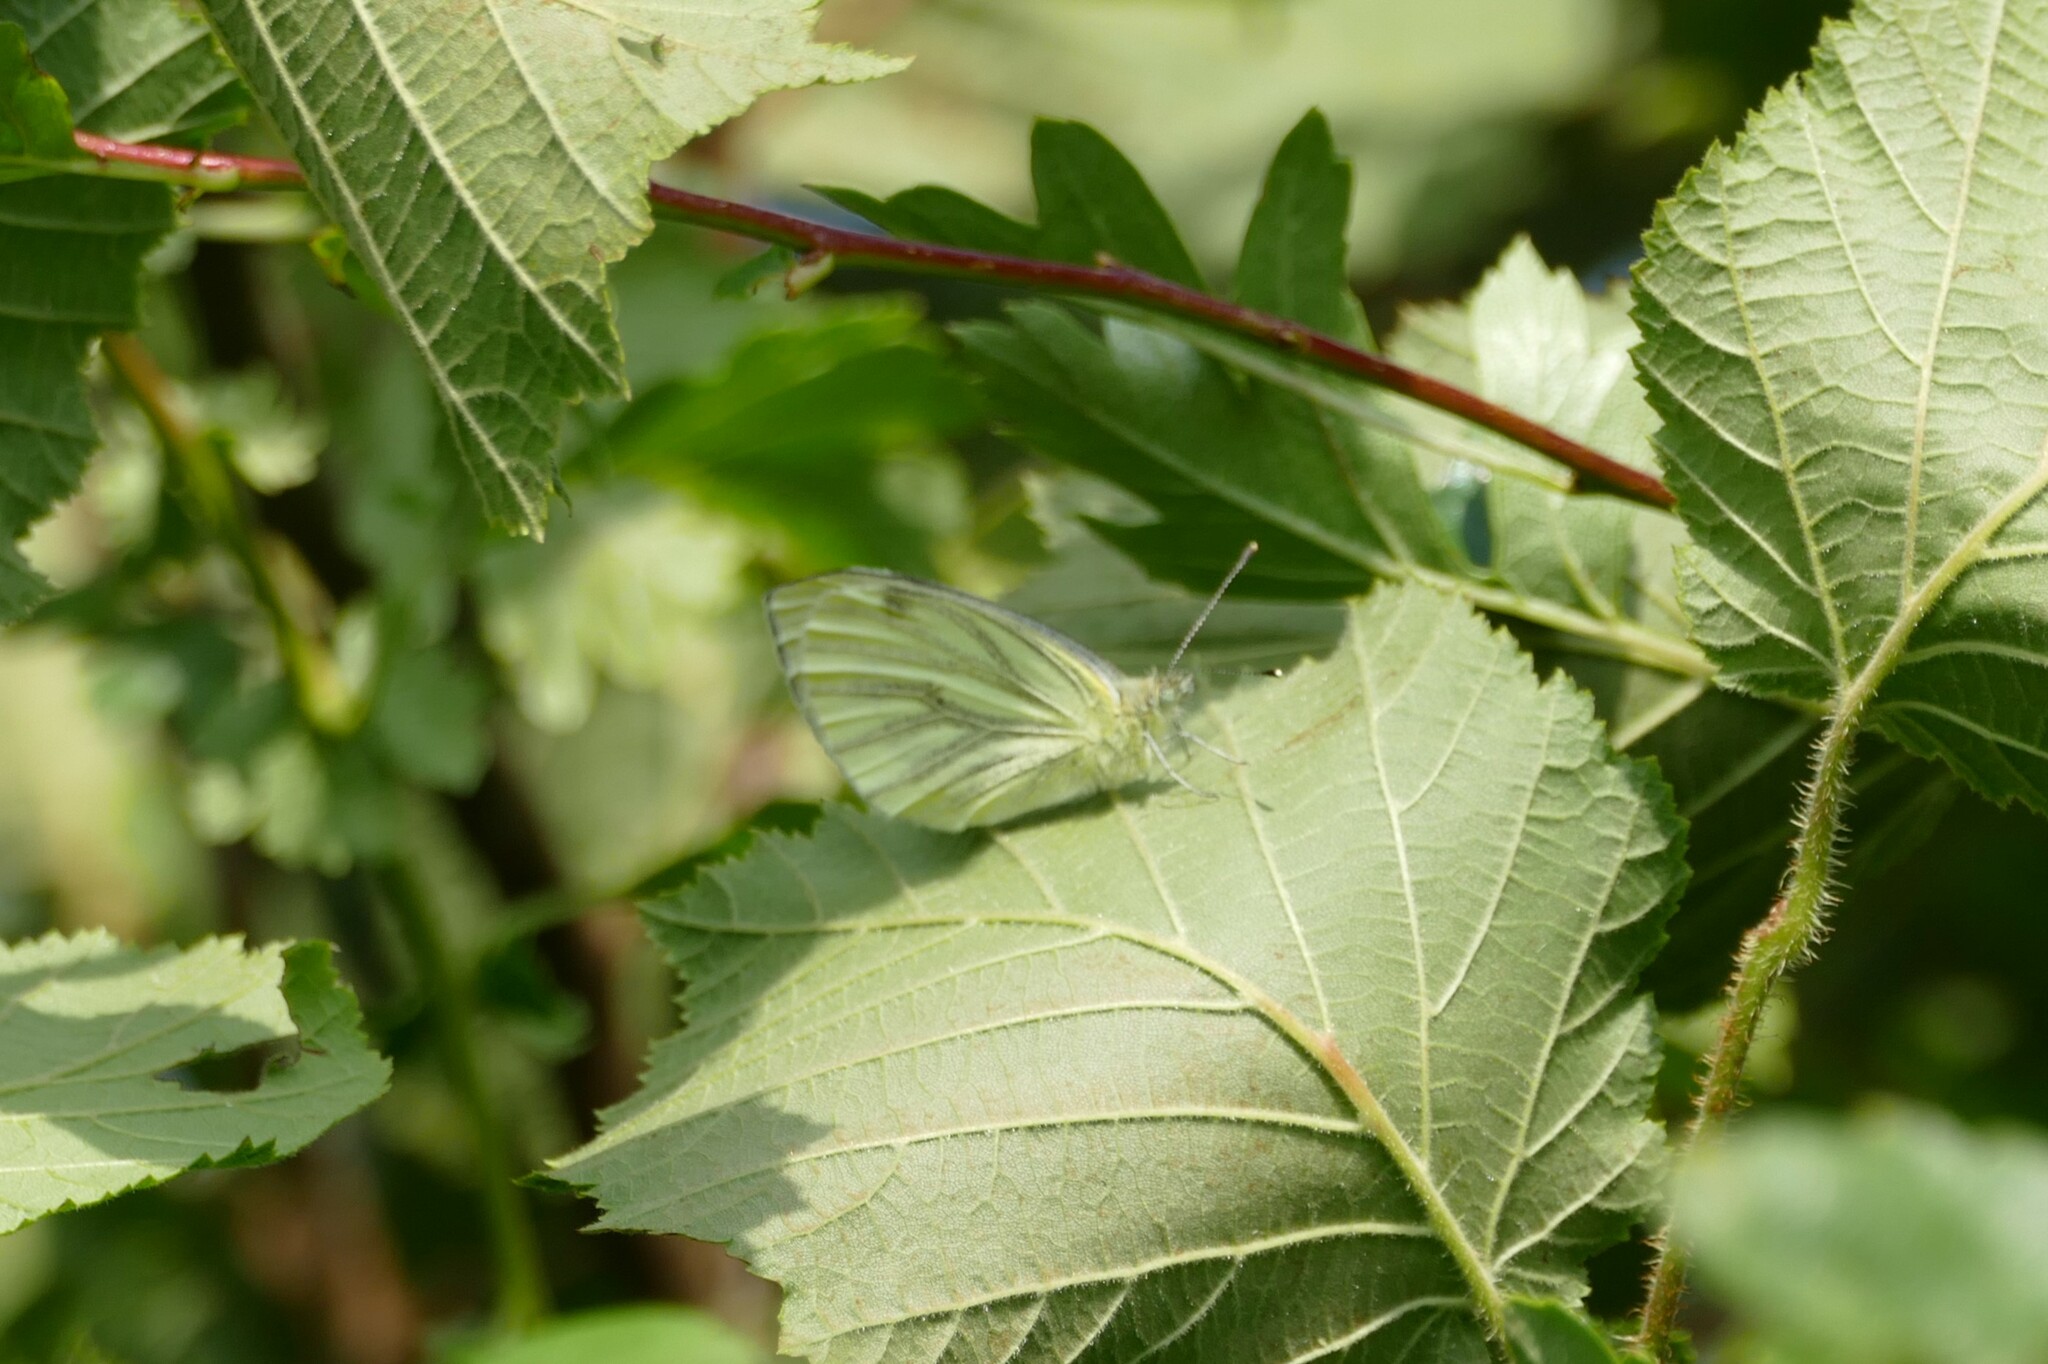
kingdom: Animalia
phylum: Arthropoda
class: Insecta
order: Lepidoptera
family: Pieridae
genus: Pieris
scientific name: Pieris napi
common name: Green-veined white
